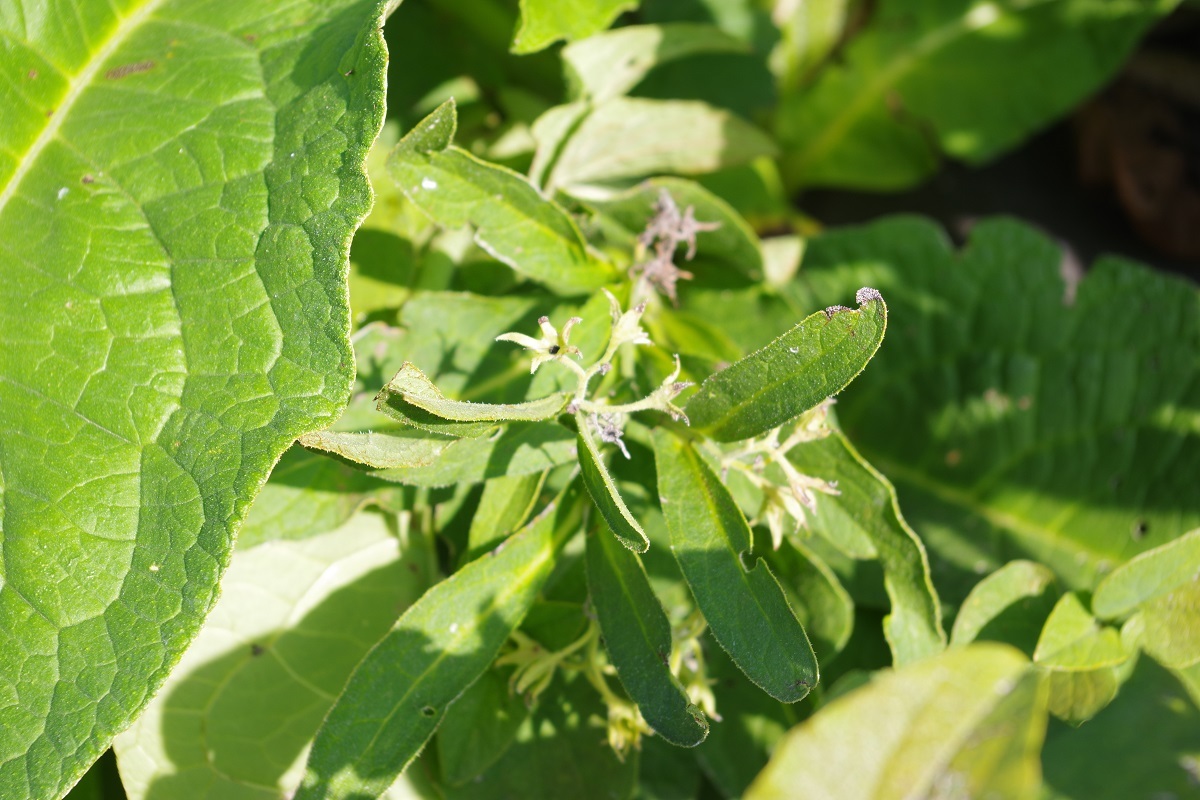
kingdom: Plantae
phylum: Tracheophyta
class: Magnoliopsida
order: Boraginales
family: Boraginaceae
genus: Symphytum
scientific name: Symphytum officinale
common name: Common comfrey
